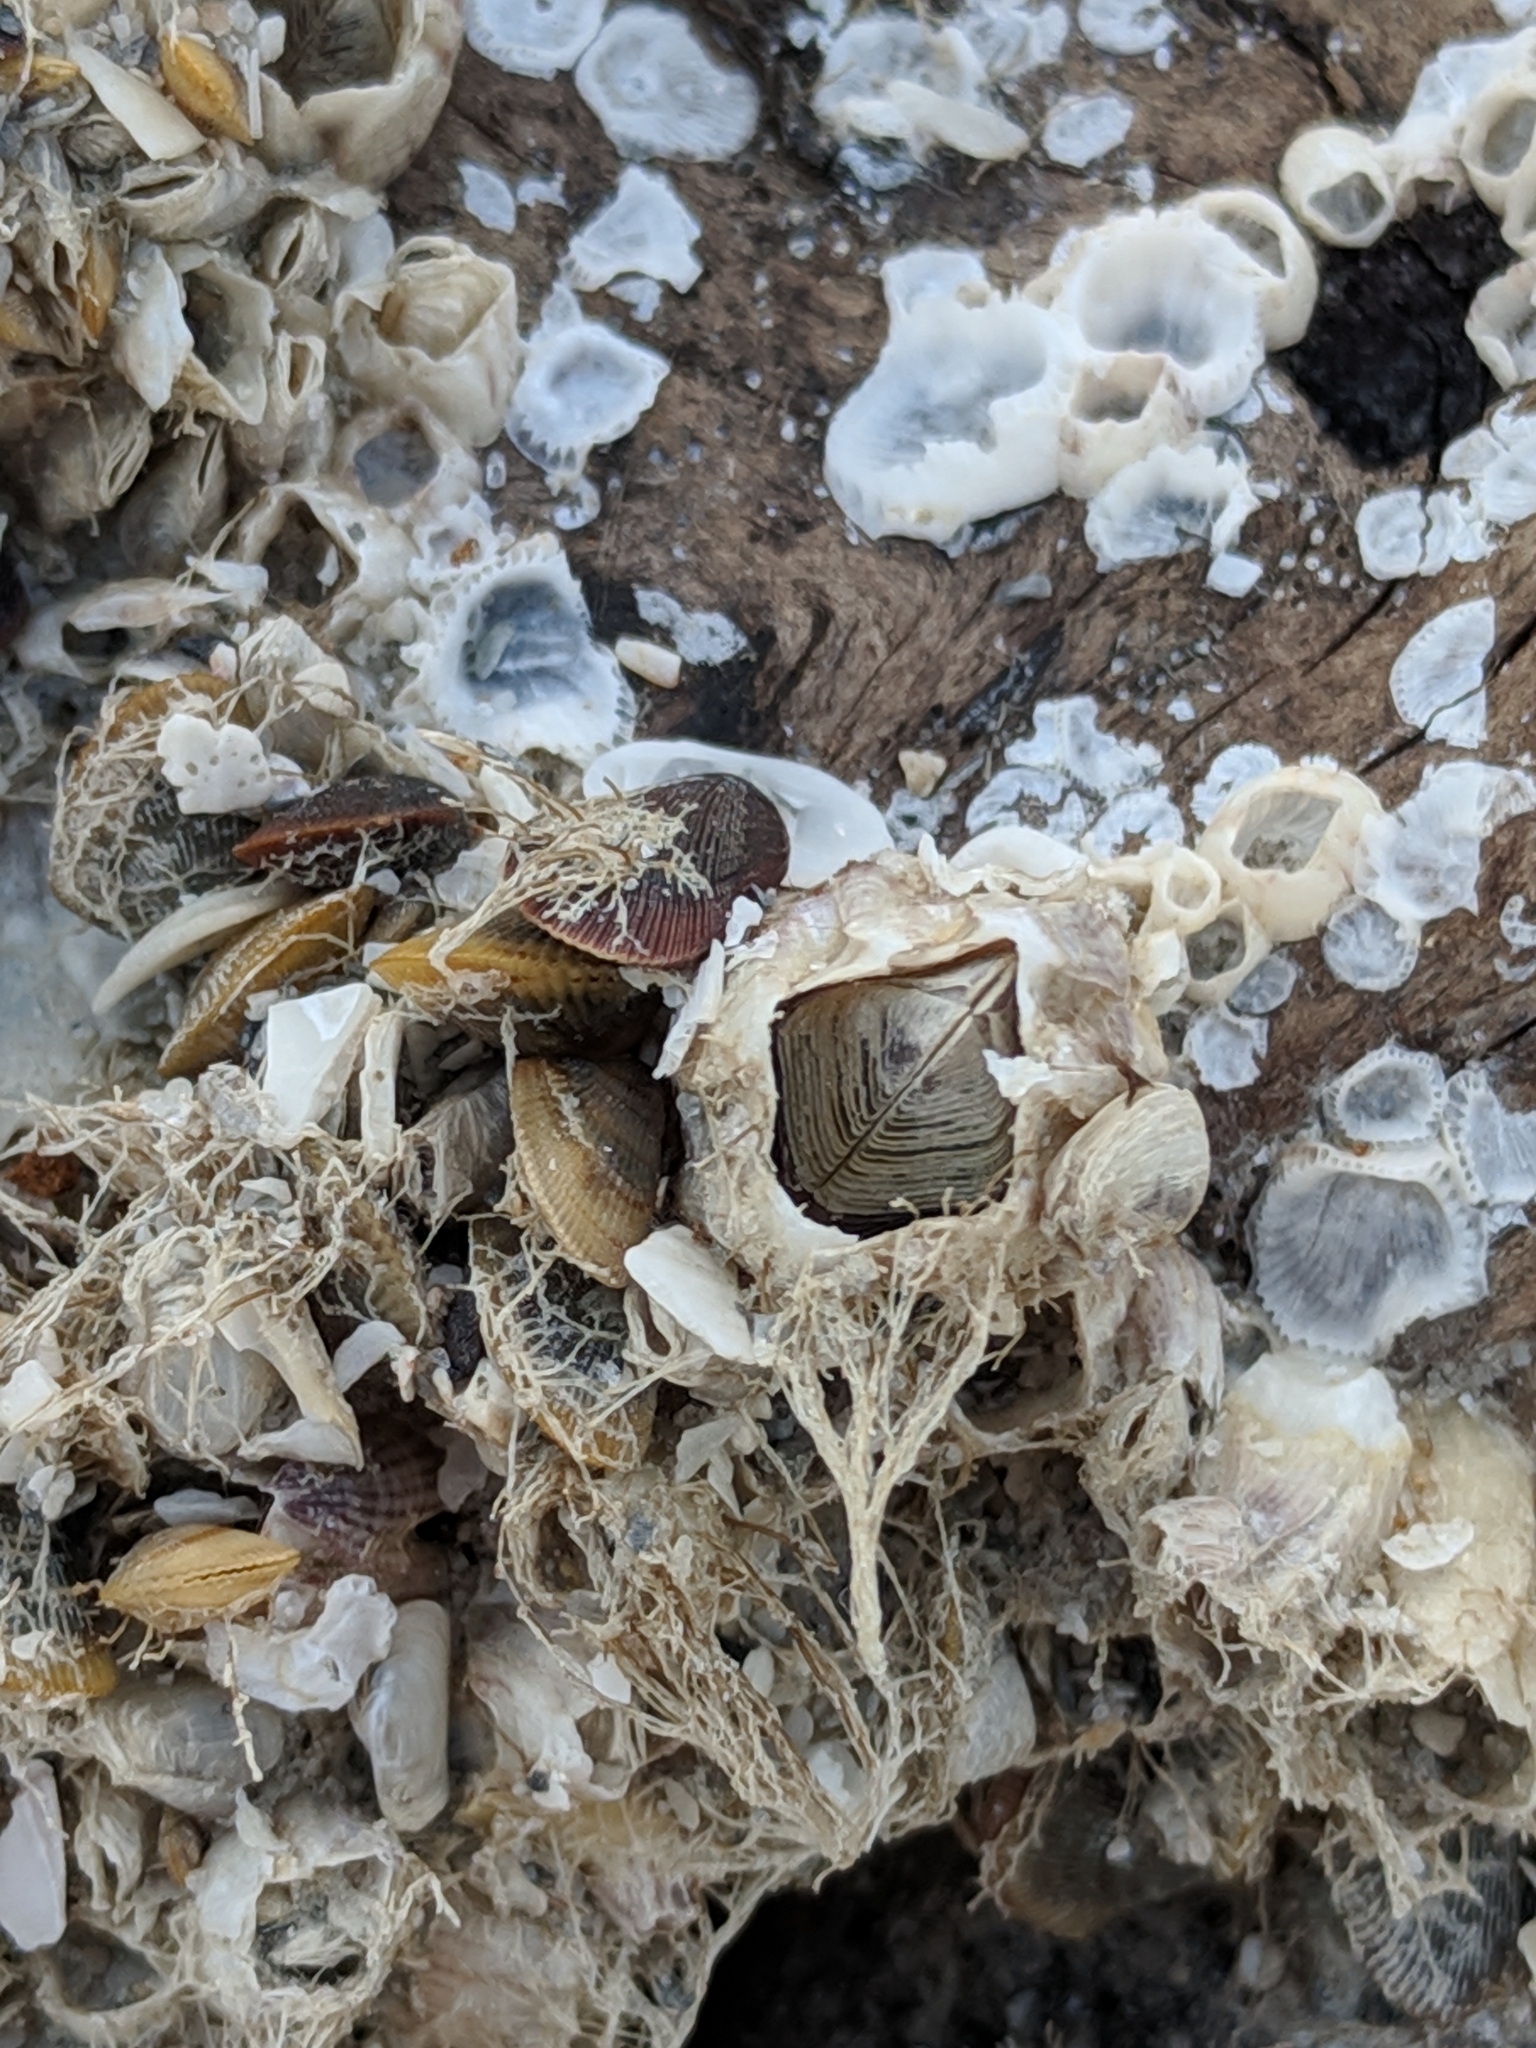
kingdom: Animalia
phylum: Arthropoda
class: Maxillopoda
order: Sessilia
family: Balanidae
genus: Amphibalanus
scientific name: Amphibalanus reticulatus
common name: Reticulated barnacle
